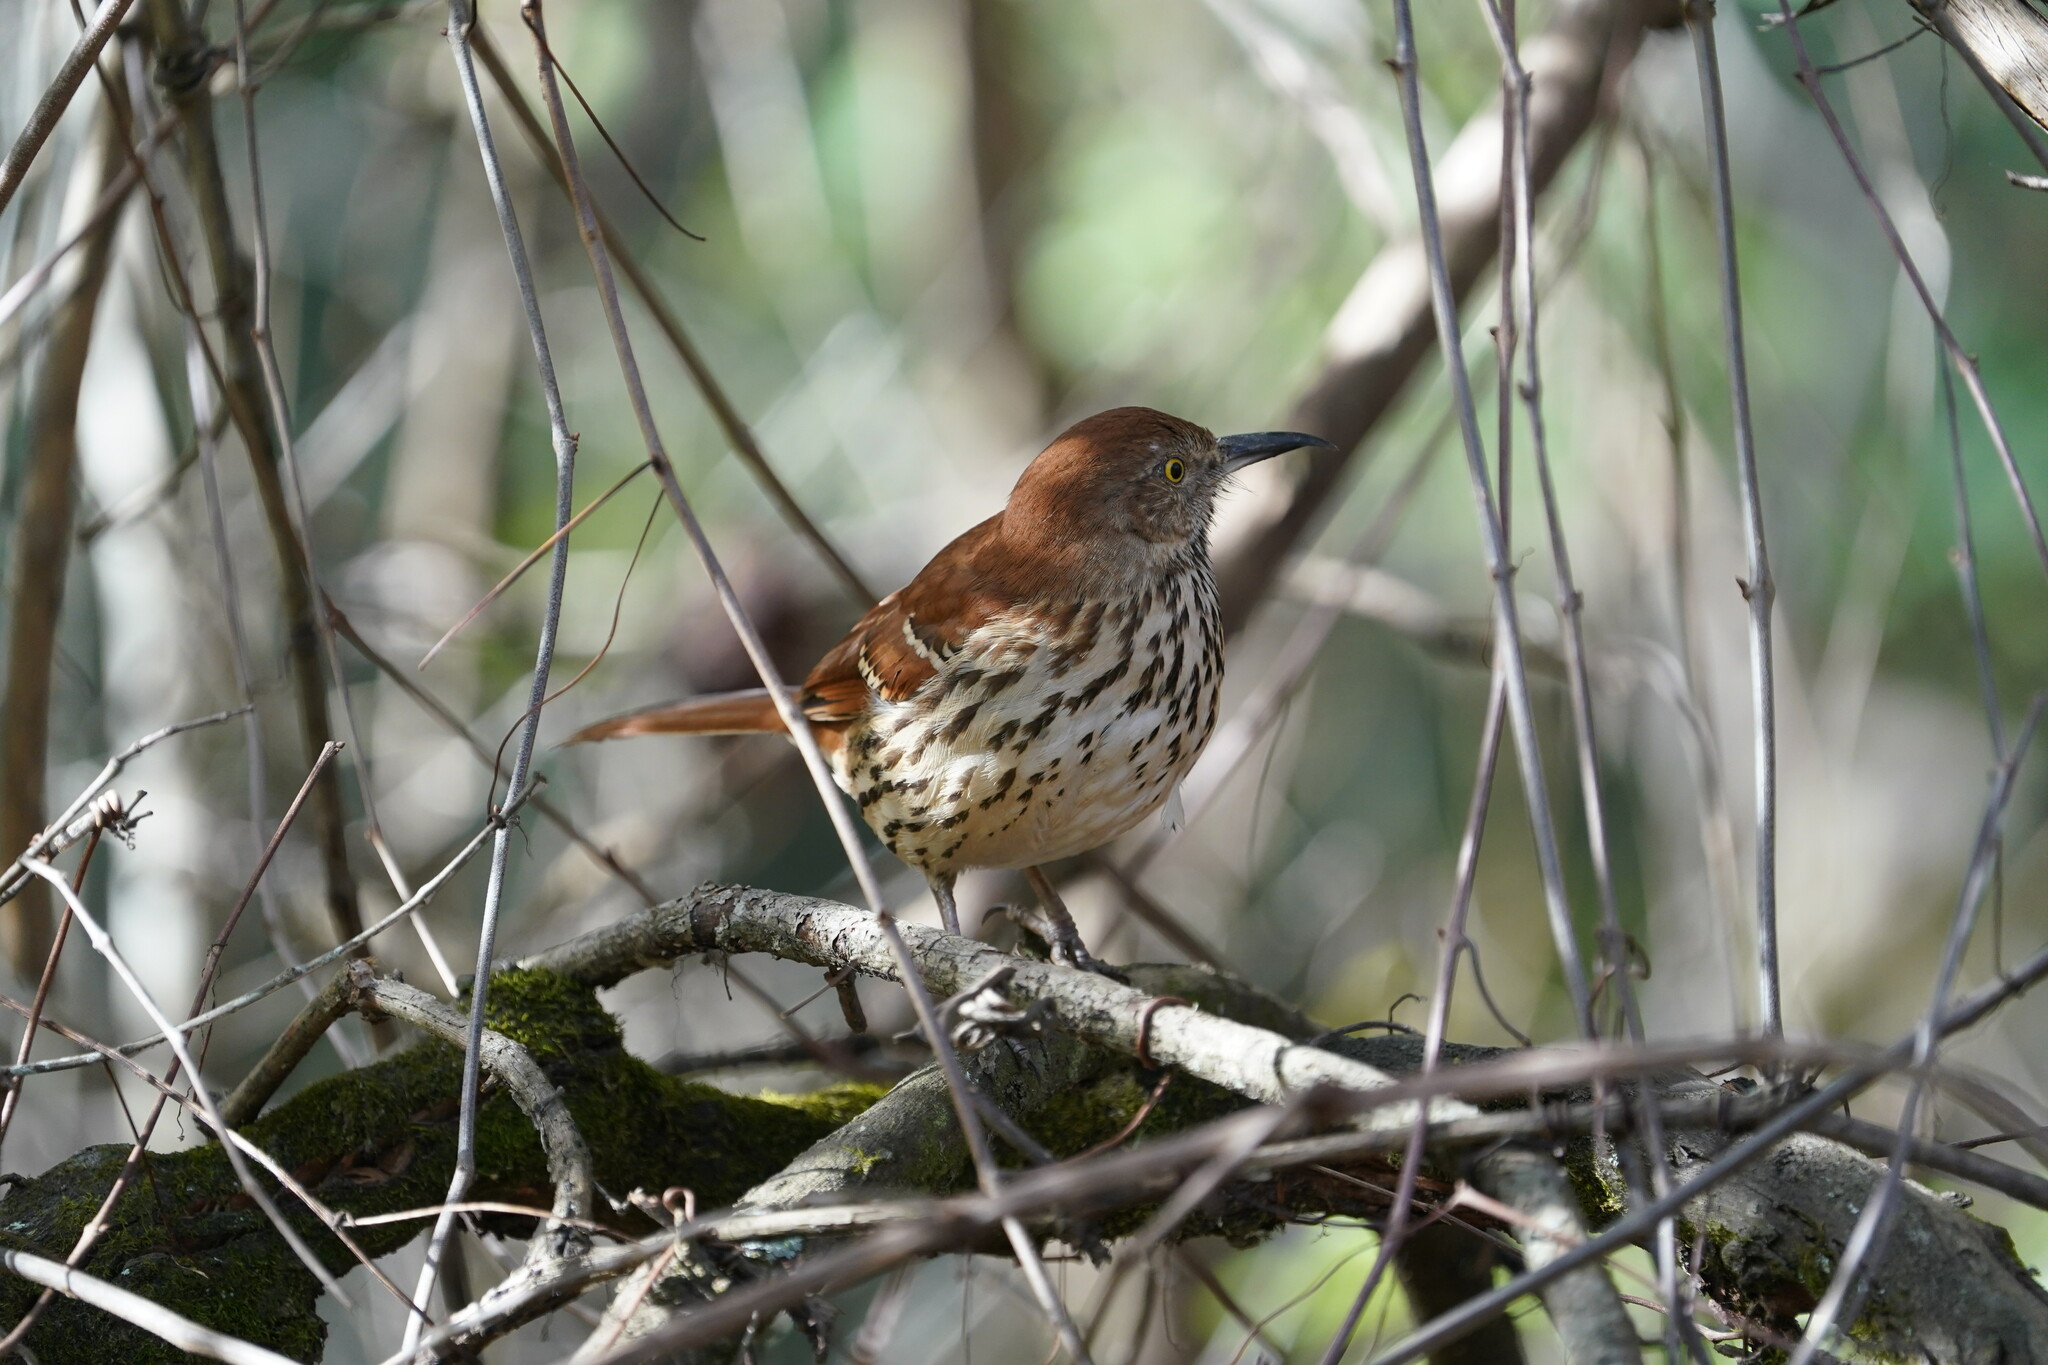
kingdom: Animalia
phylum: Chordata
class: Aves
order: Passeriformes
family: Mimidae
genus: Toxostoma
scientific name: Toxostoma rufum
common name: Brown thrasher
